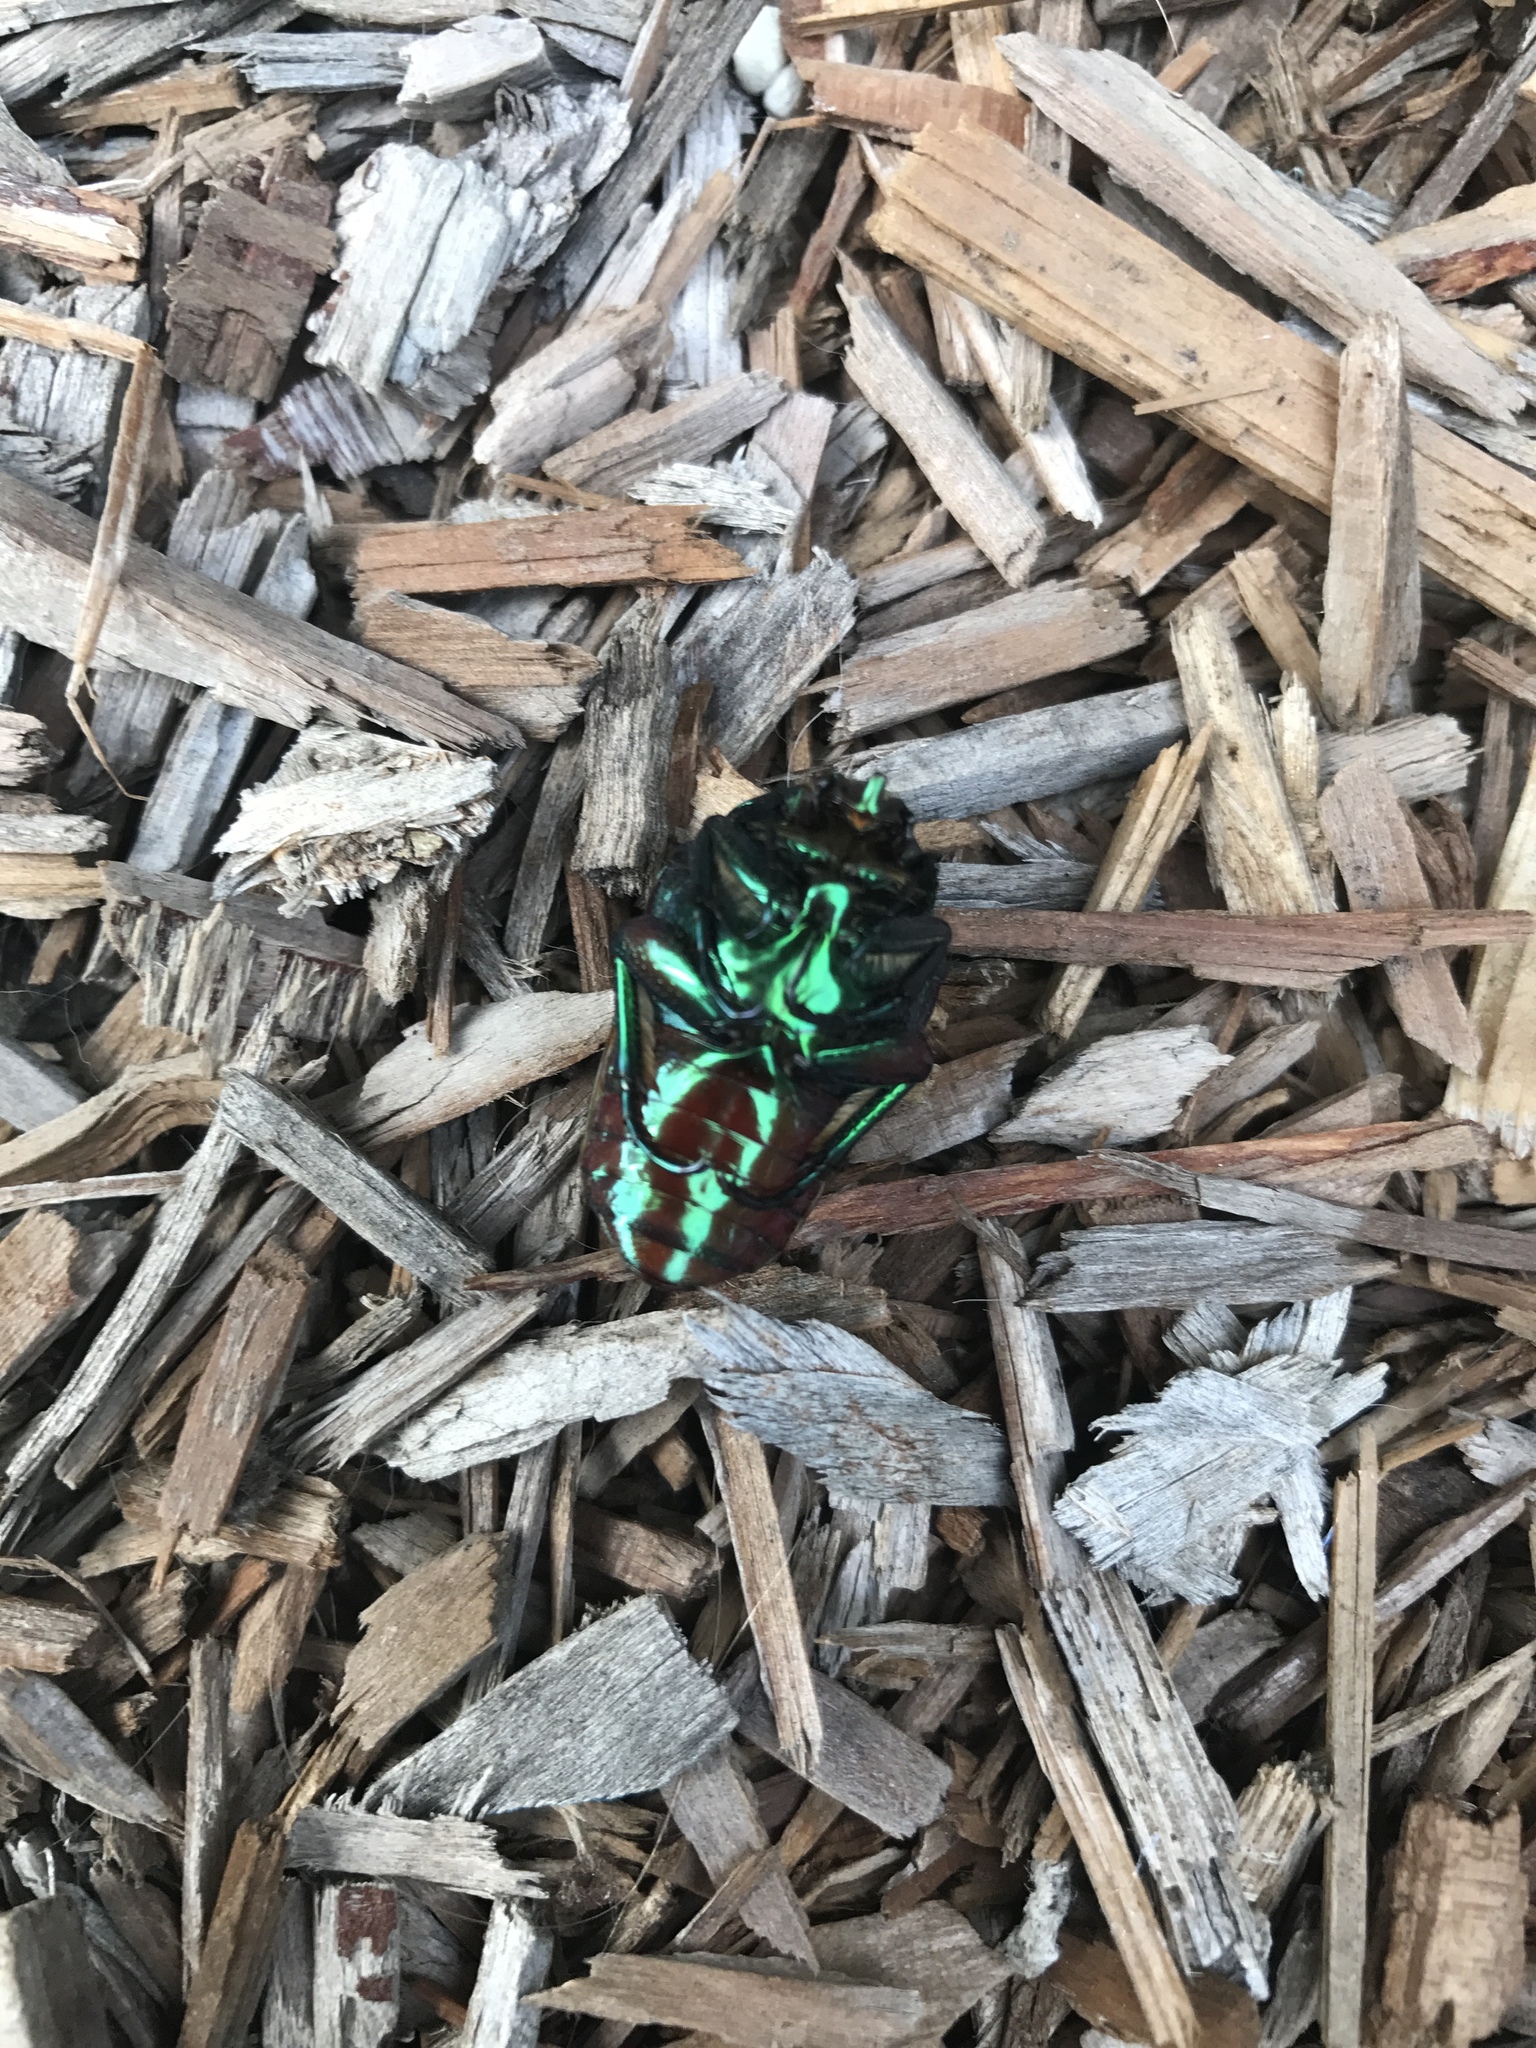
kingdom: Animalia
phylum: Arthropoda
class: Insecta
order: Coleoptera
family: Scarabaeidae
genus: Cotinis
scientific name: Cotinis mutabilis
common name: Figeater beetle
